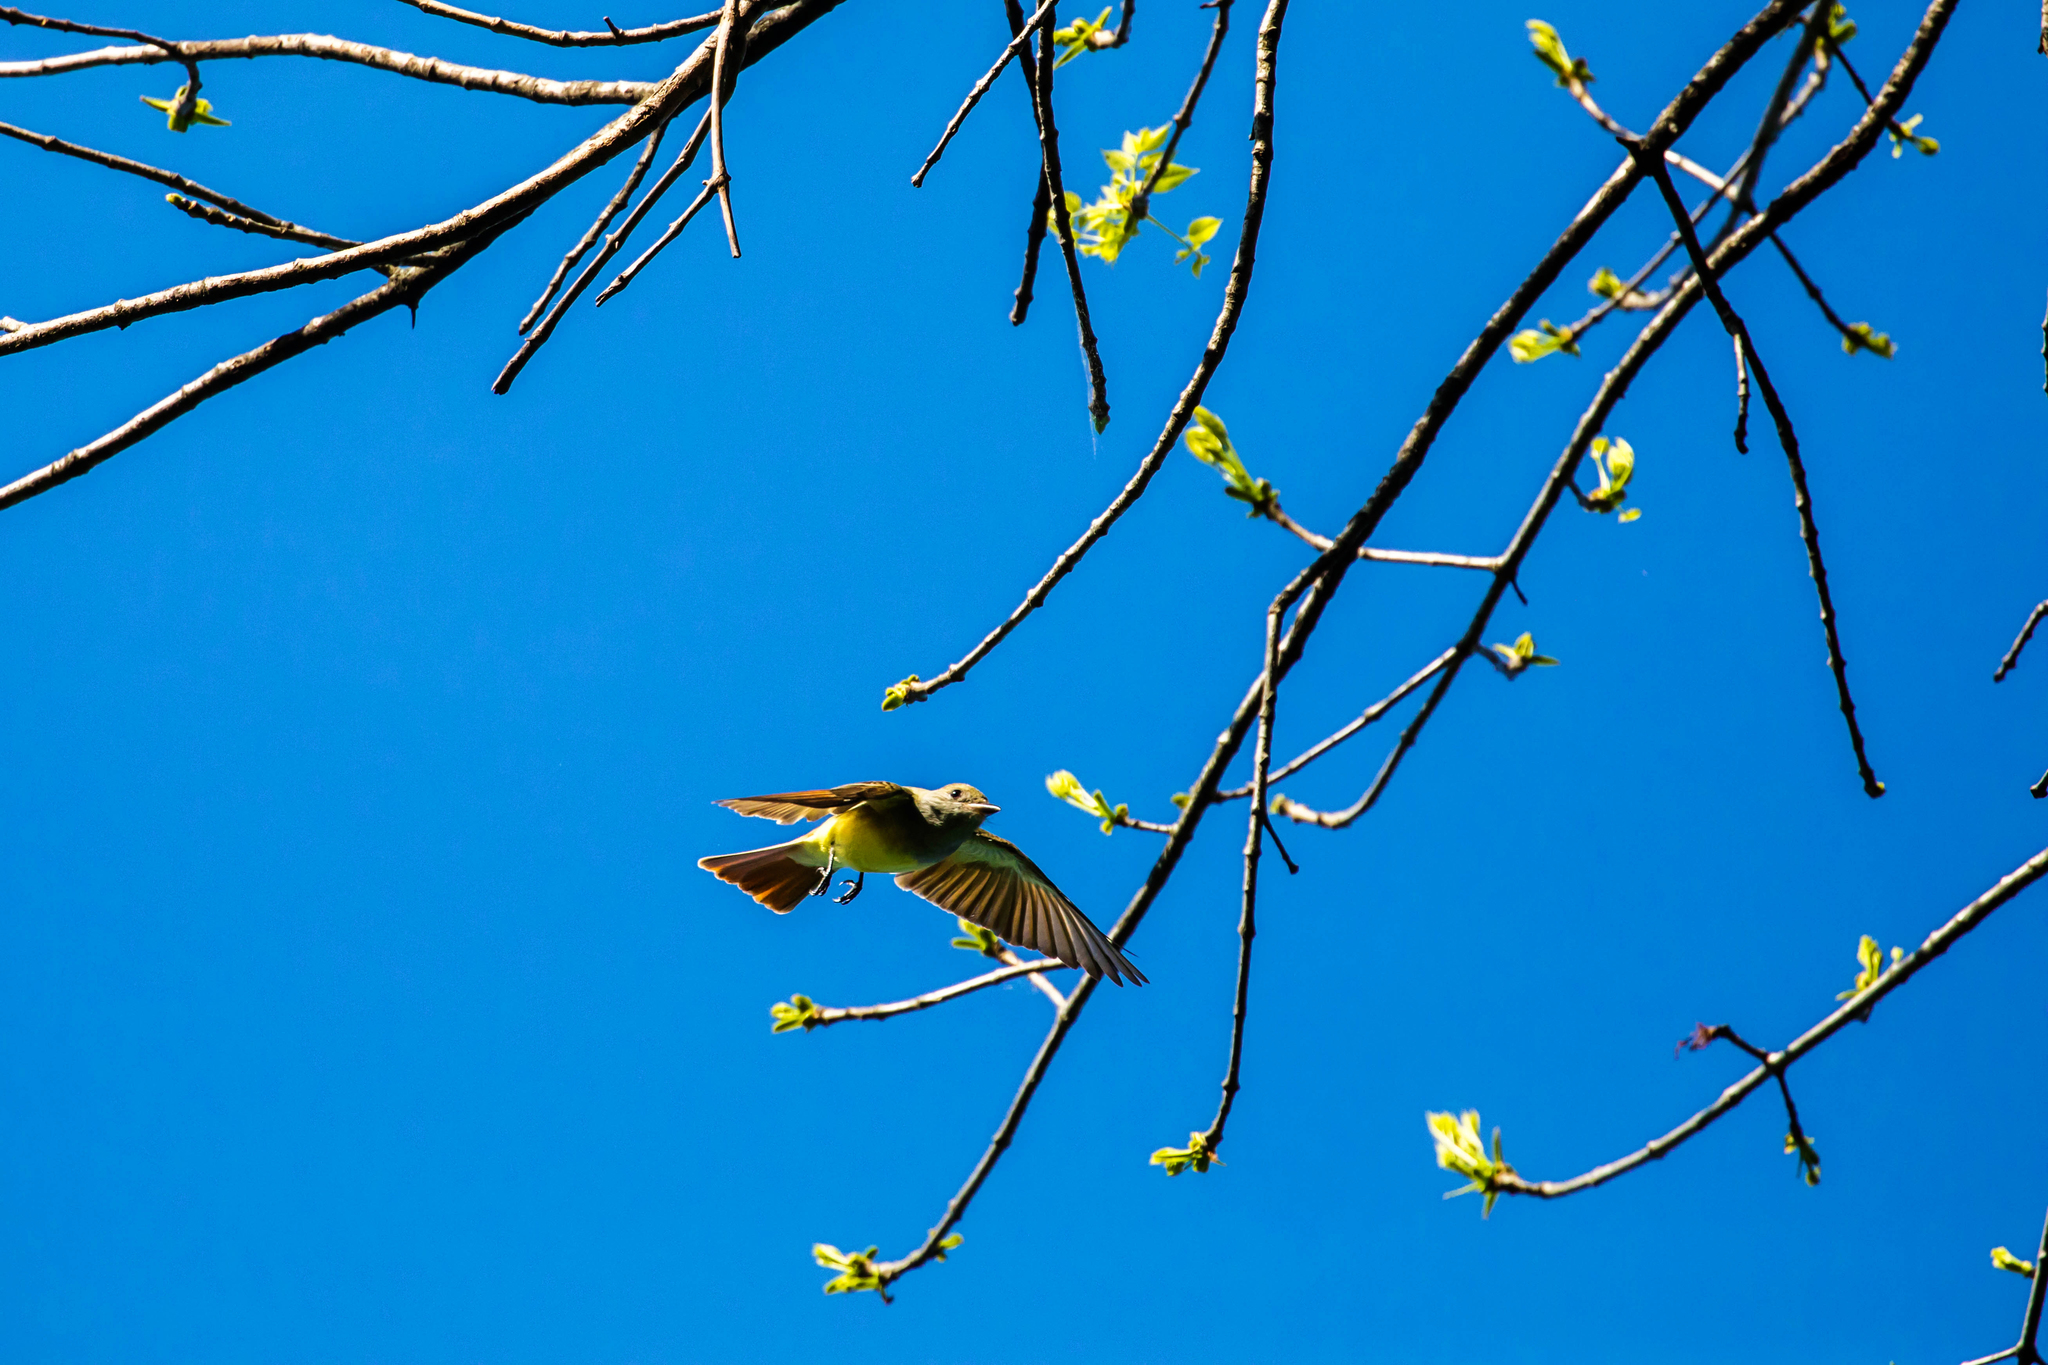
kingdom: Animalia
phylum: Chordata
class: Aves
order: Passeriformes
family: Tyrannidae
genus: Myiarchus
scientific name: Myiarchus crinitus
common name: Great crested flycatcher
